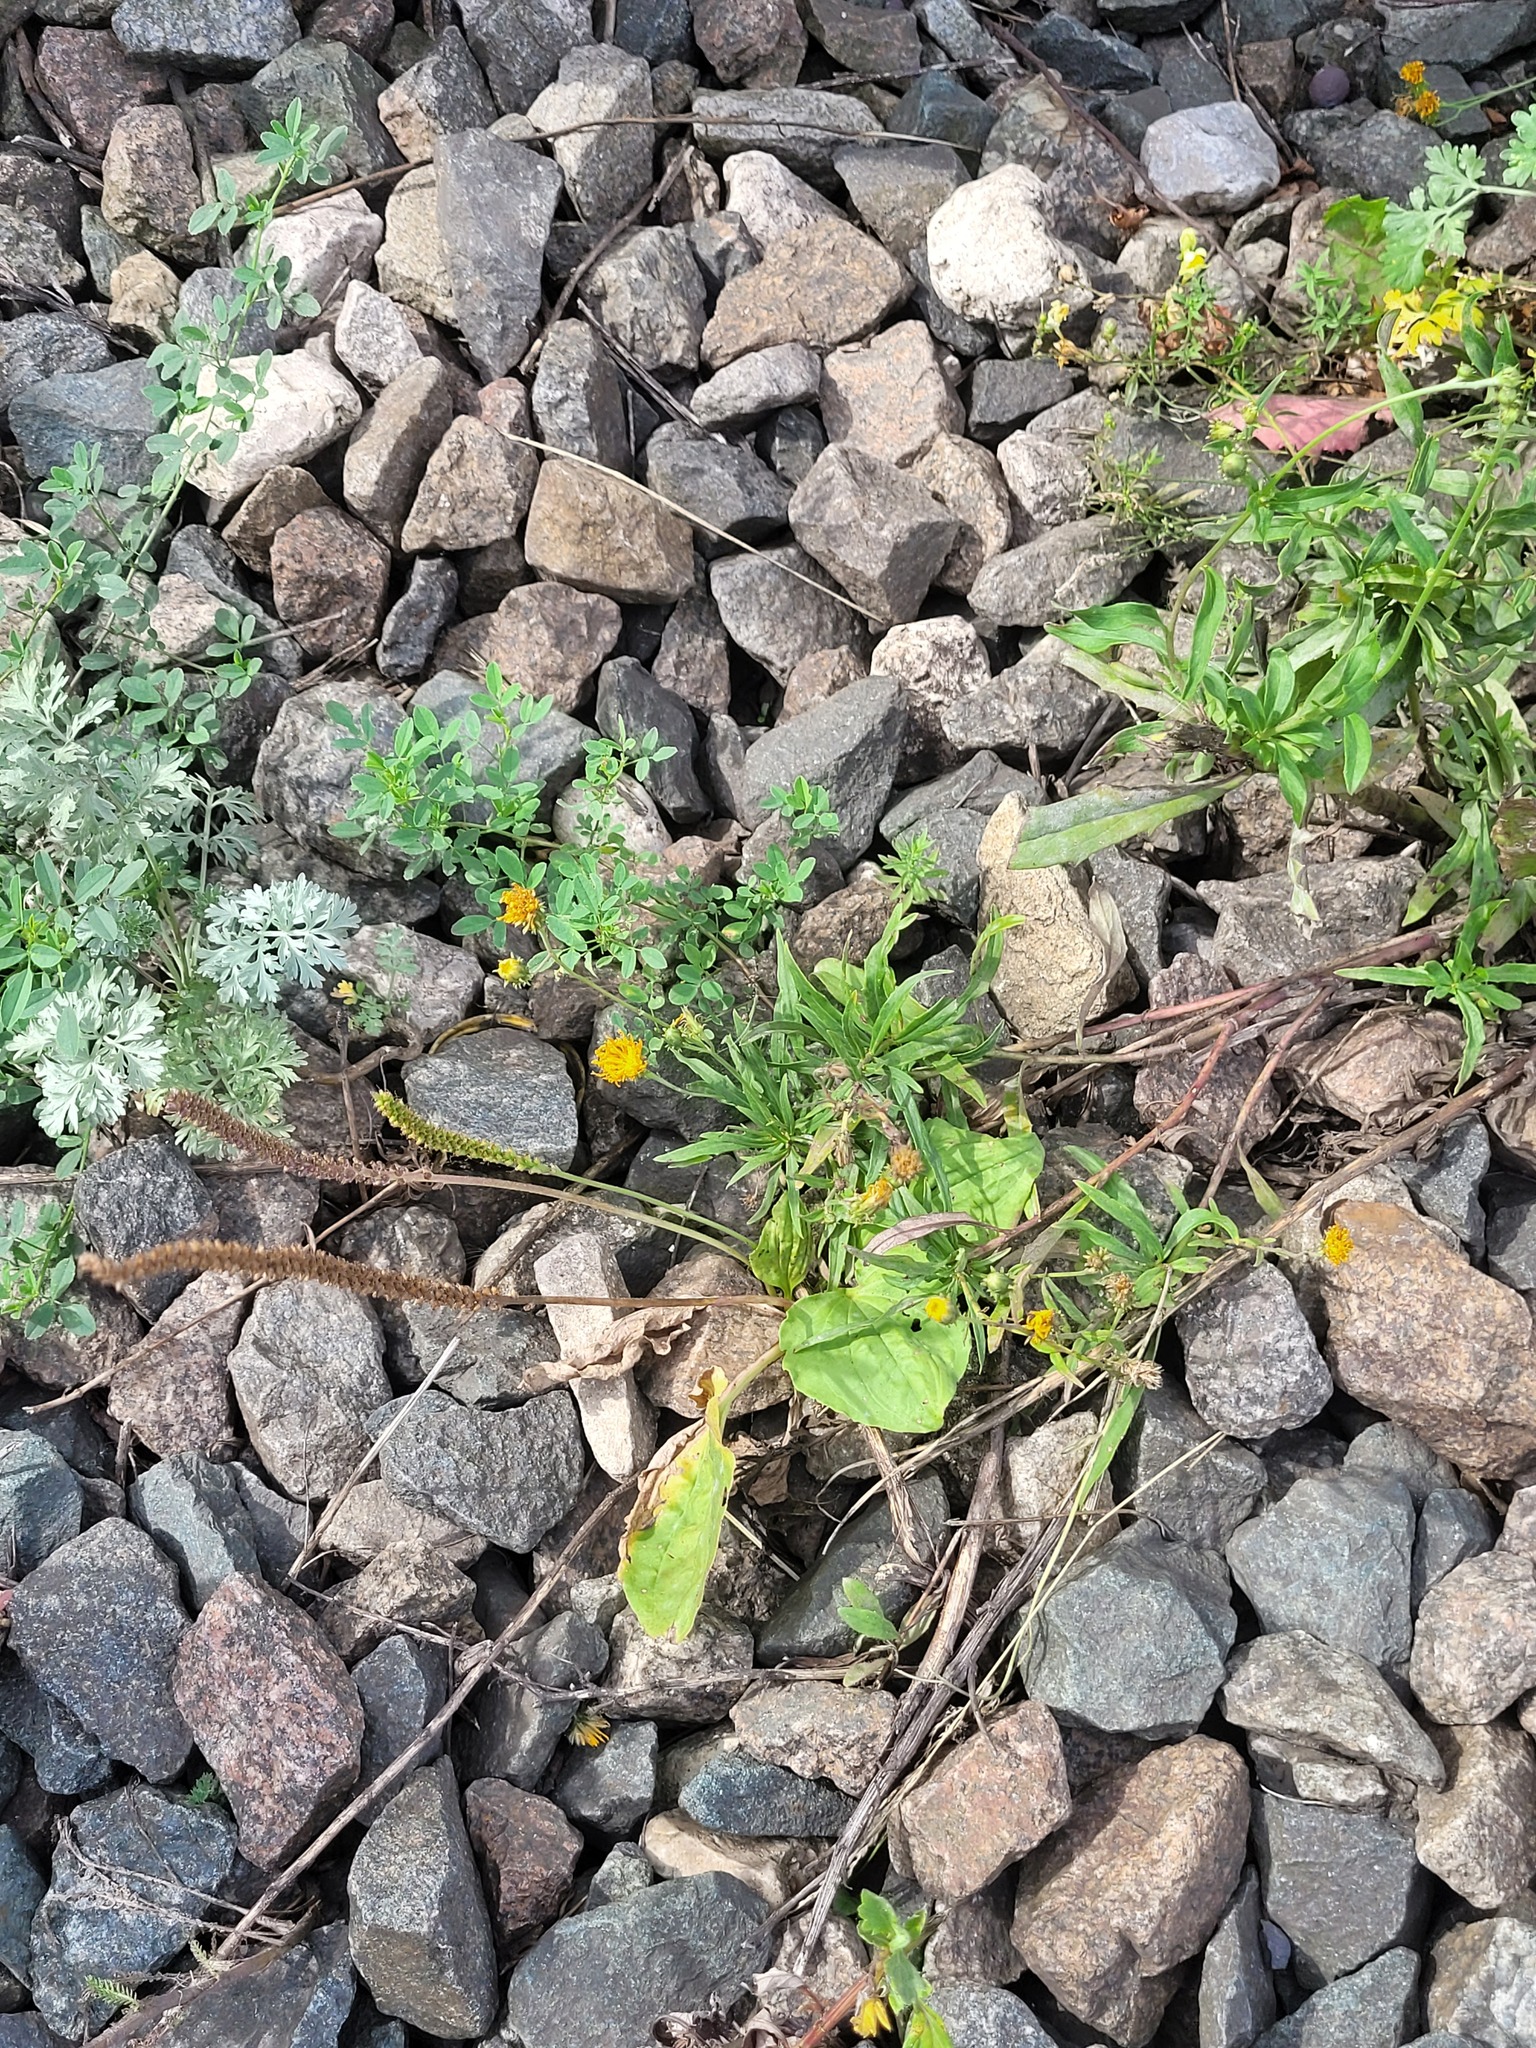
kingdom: Plantae
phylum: Tracheophyta
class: Magnoliopsida
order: Asterales
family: Asteraceae
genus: Hieracium
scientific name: Hieracium umbellatum
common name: Northern hawkweed
